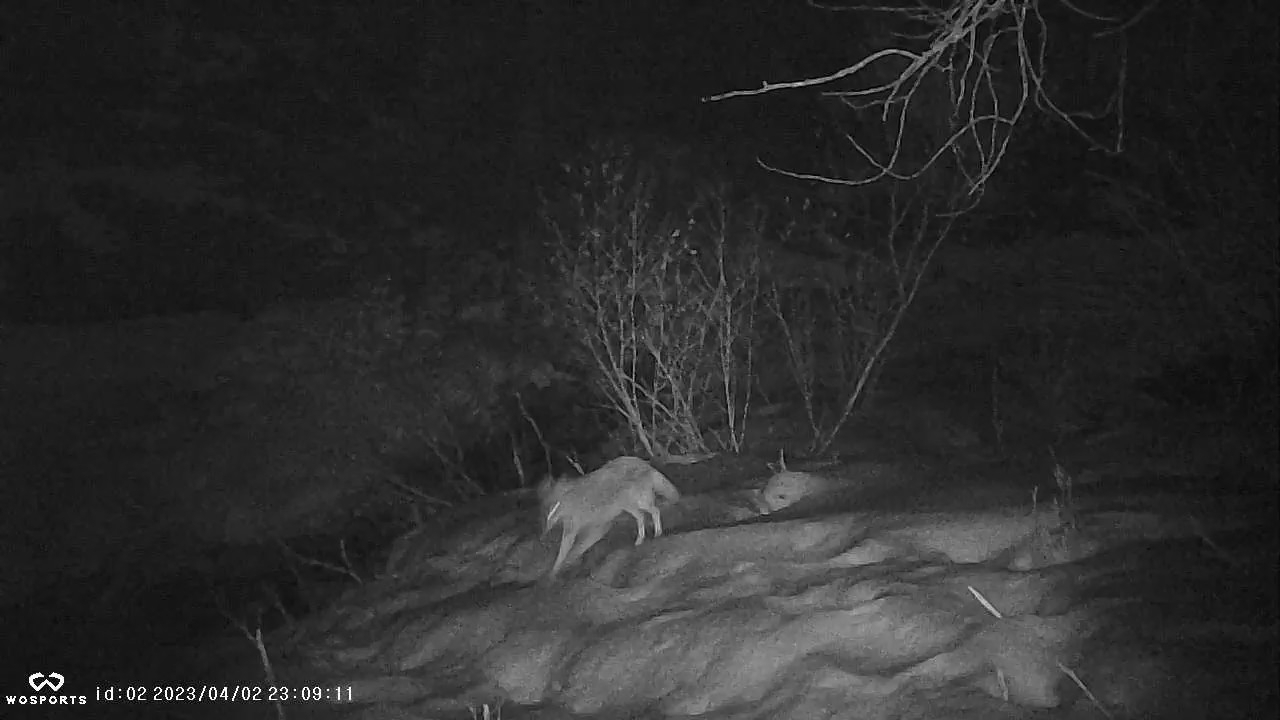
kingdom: Animalia
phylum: Chordata
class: Mammalia
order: Carnivora
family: Canidae
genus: Canis
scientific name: Canis latrans
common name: Coyote
